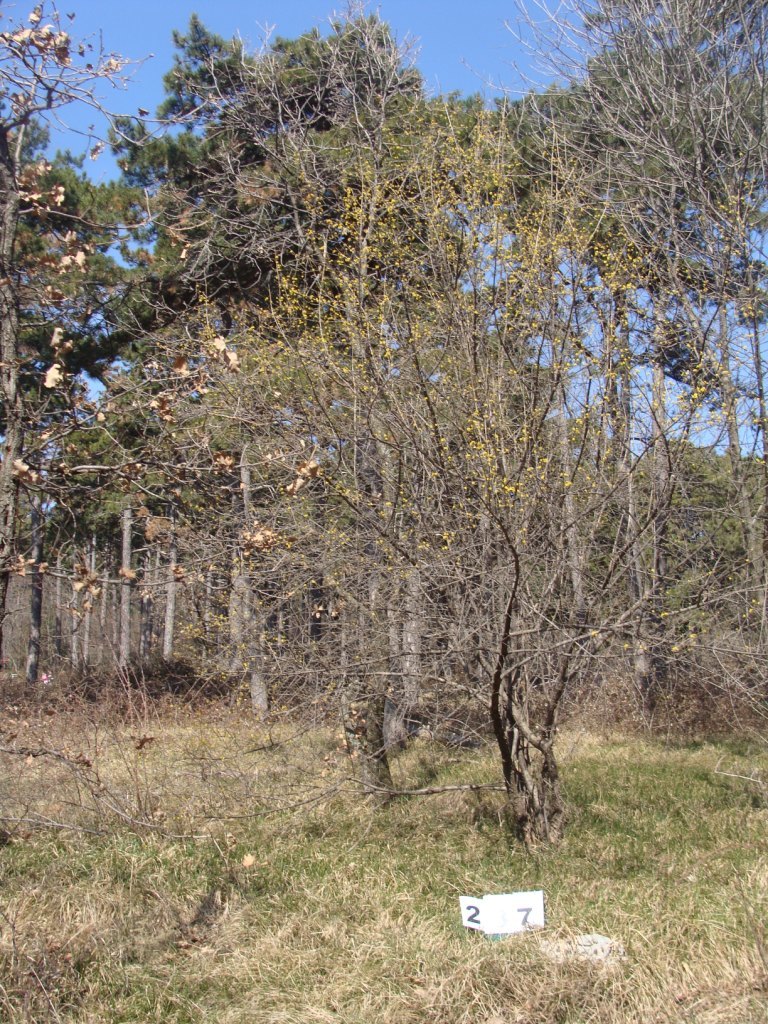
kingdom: Plantae
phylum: Tracheophyta
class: Magnoliopsida
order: Cornales
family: Cornaceae
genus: Cornus
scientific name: Cornus mas
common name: Cornelian-cherry
